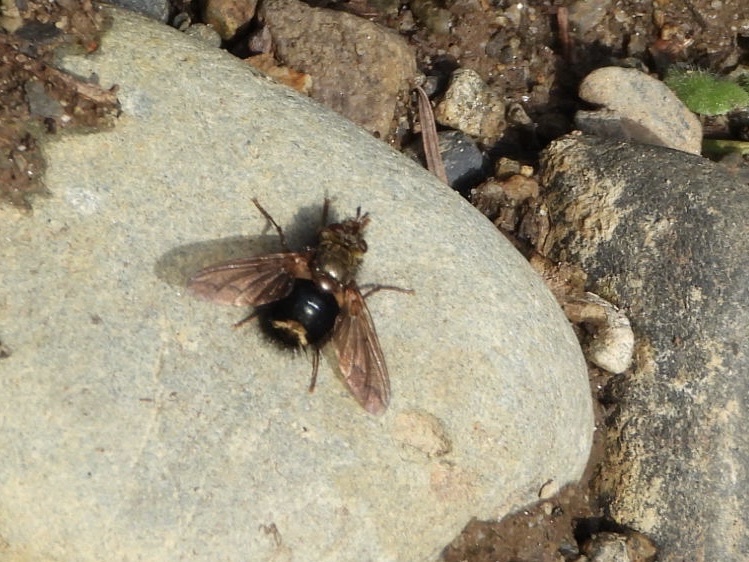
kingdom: Animalia
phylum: Arthropoda
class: Insecta
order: Diptera
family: Tachinidae
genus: Epalpus
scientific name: Epalpus signifer
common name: Early tachinid fly
